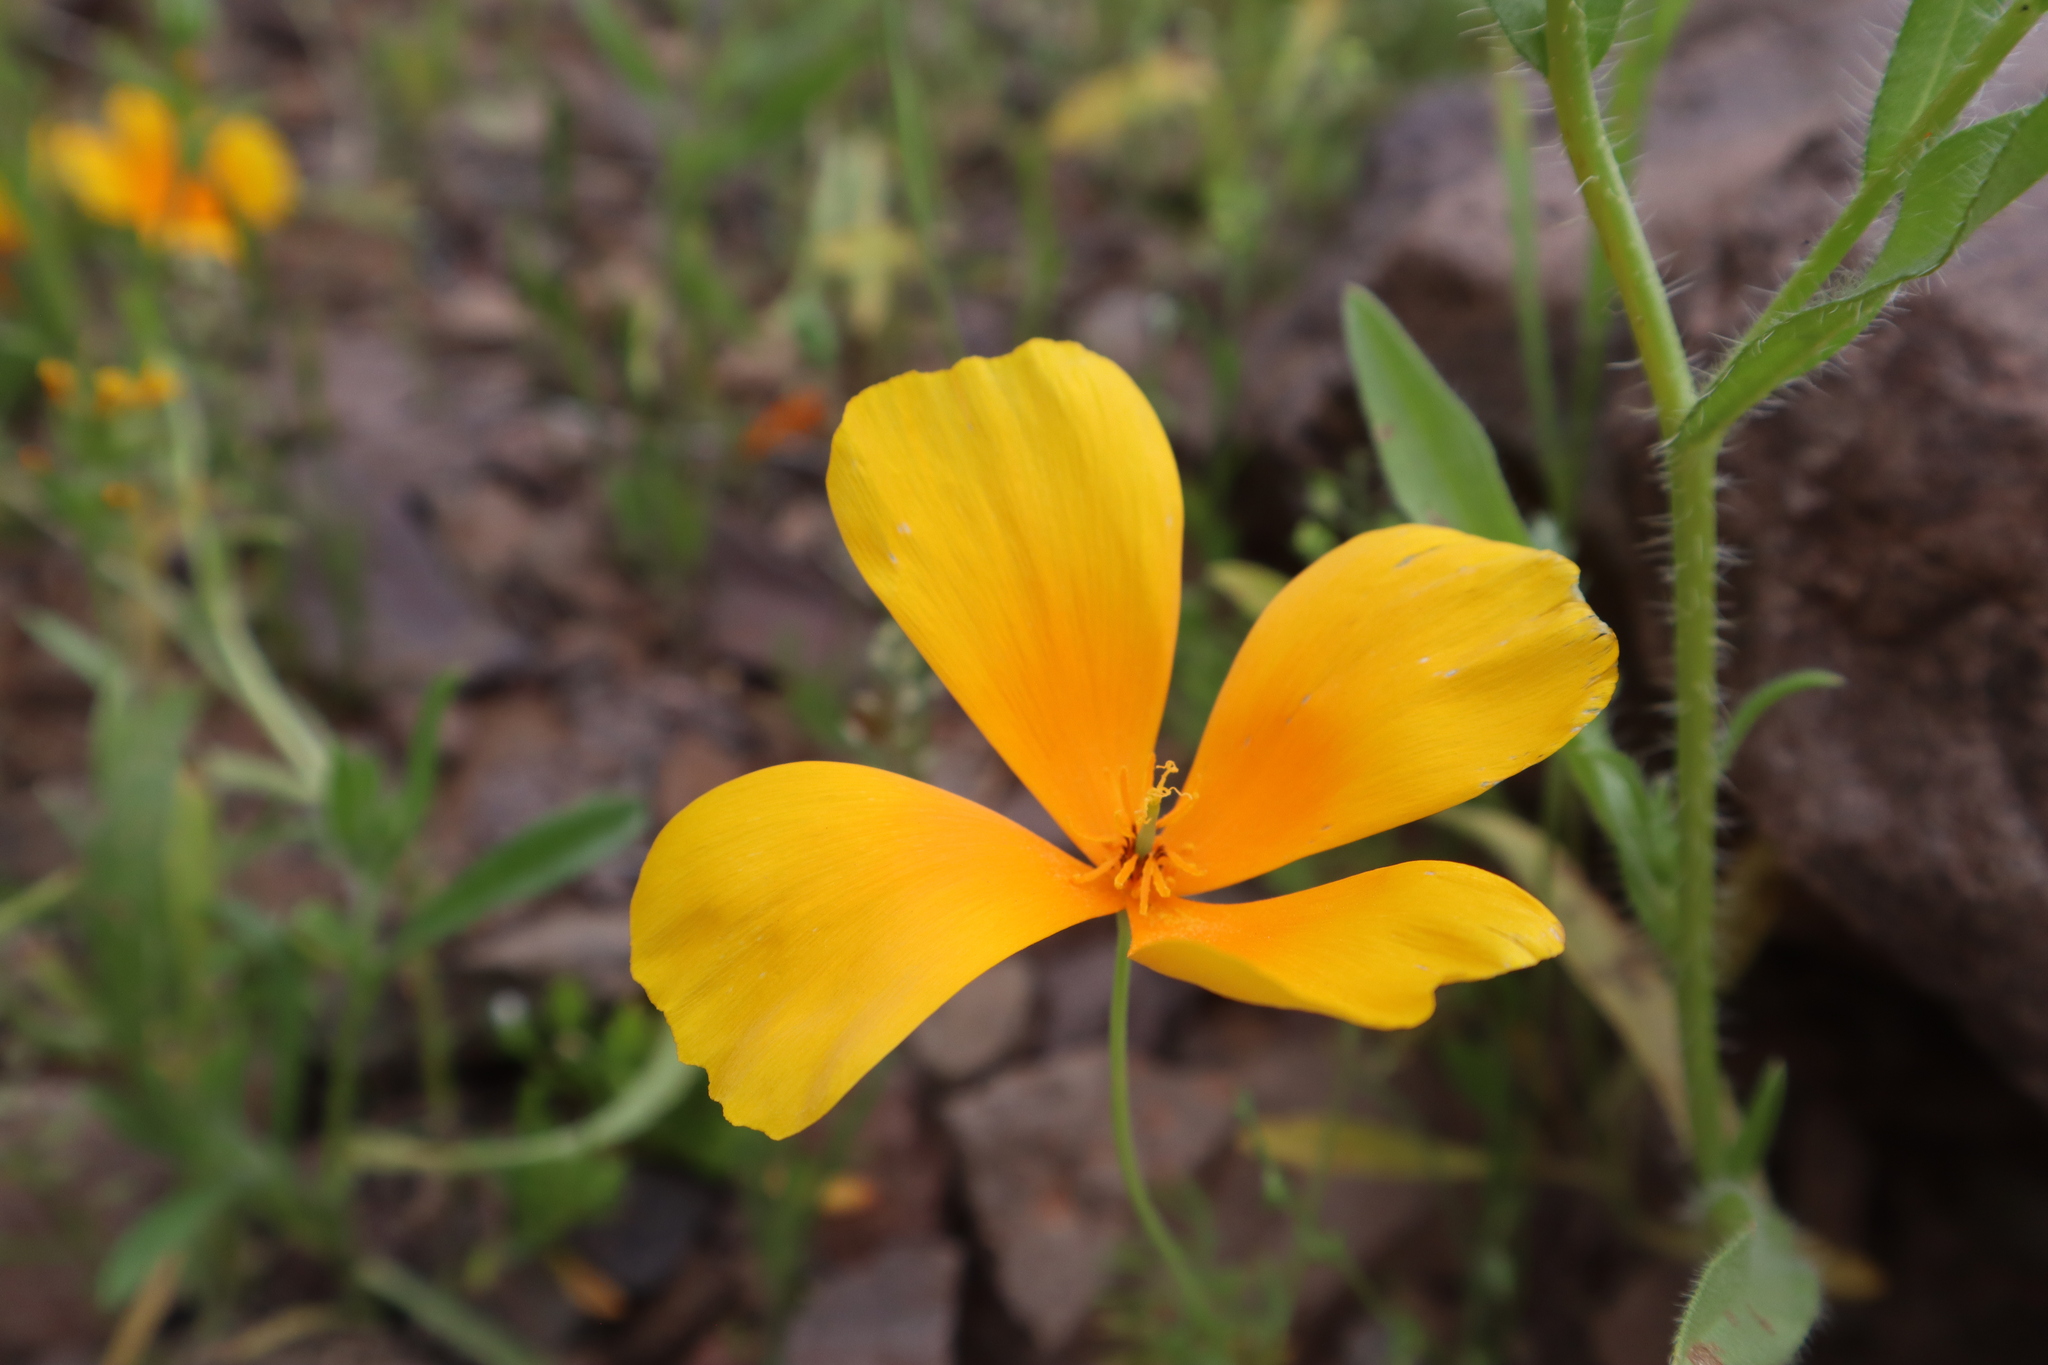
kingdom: Plantae
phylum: Tracheophyta
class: Magnoliopsida
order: Ranunculales
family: Papaveraceae
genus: Eschscholzia
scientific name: Eschscholzia californica
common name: California poppy
